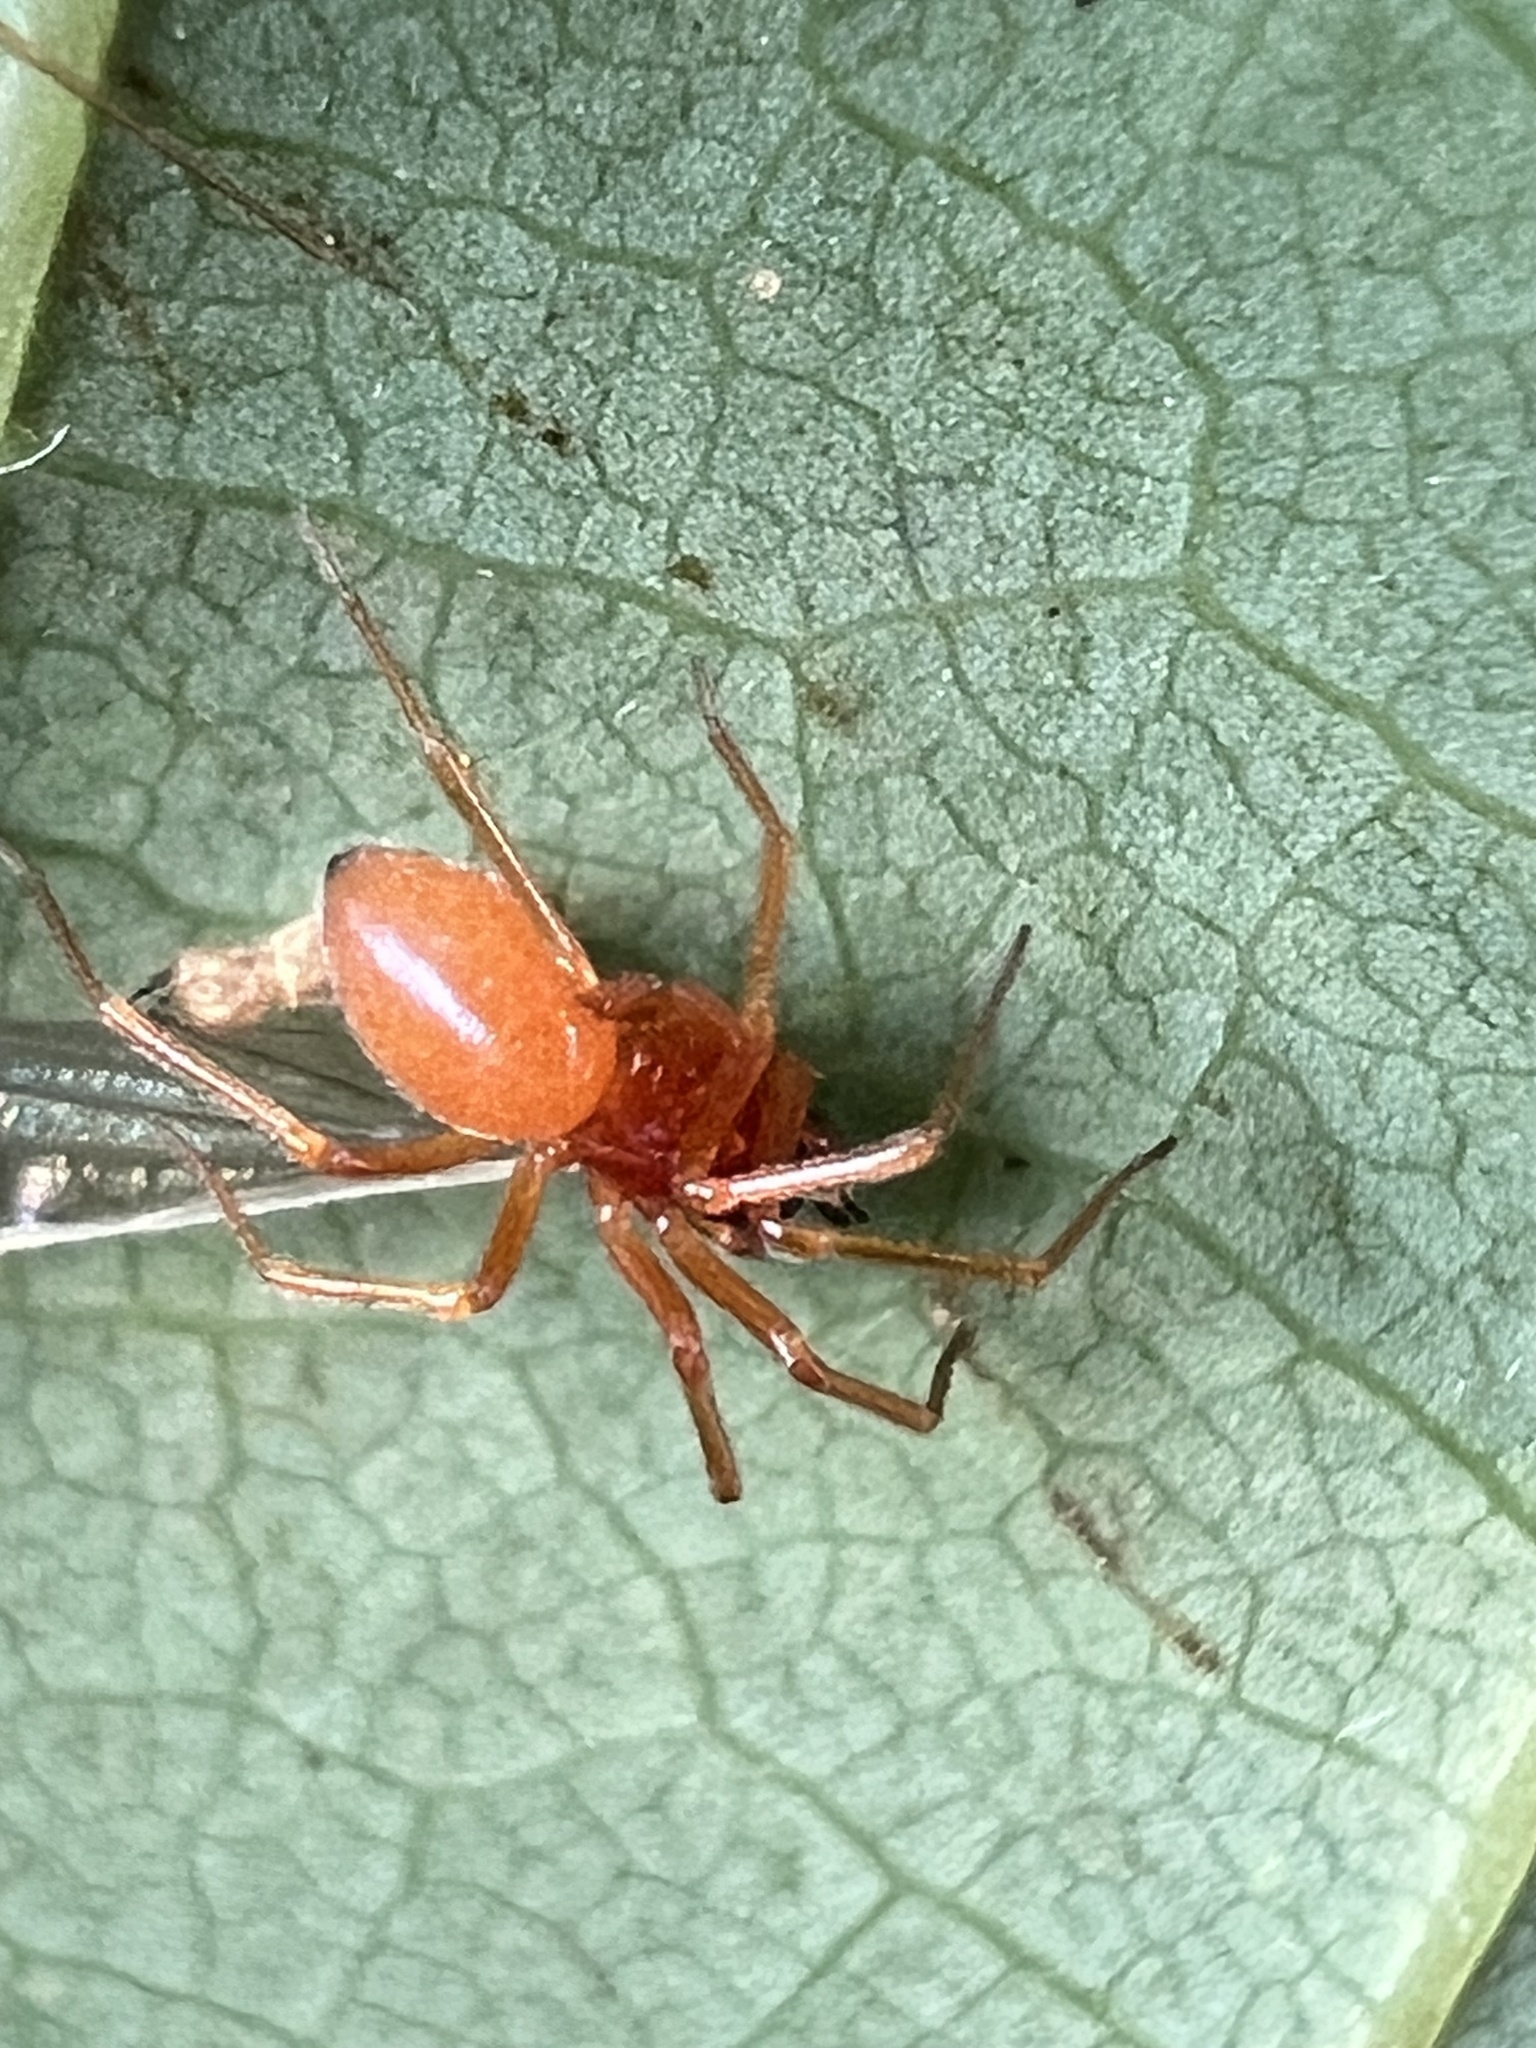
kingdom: Animalia
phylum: Arthropoda
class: Arachnida
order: Araneae
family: Linyphiidae
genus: Florinda
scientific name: Florinda coccinea
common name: Black-tailed red sheetweaver
